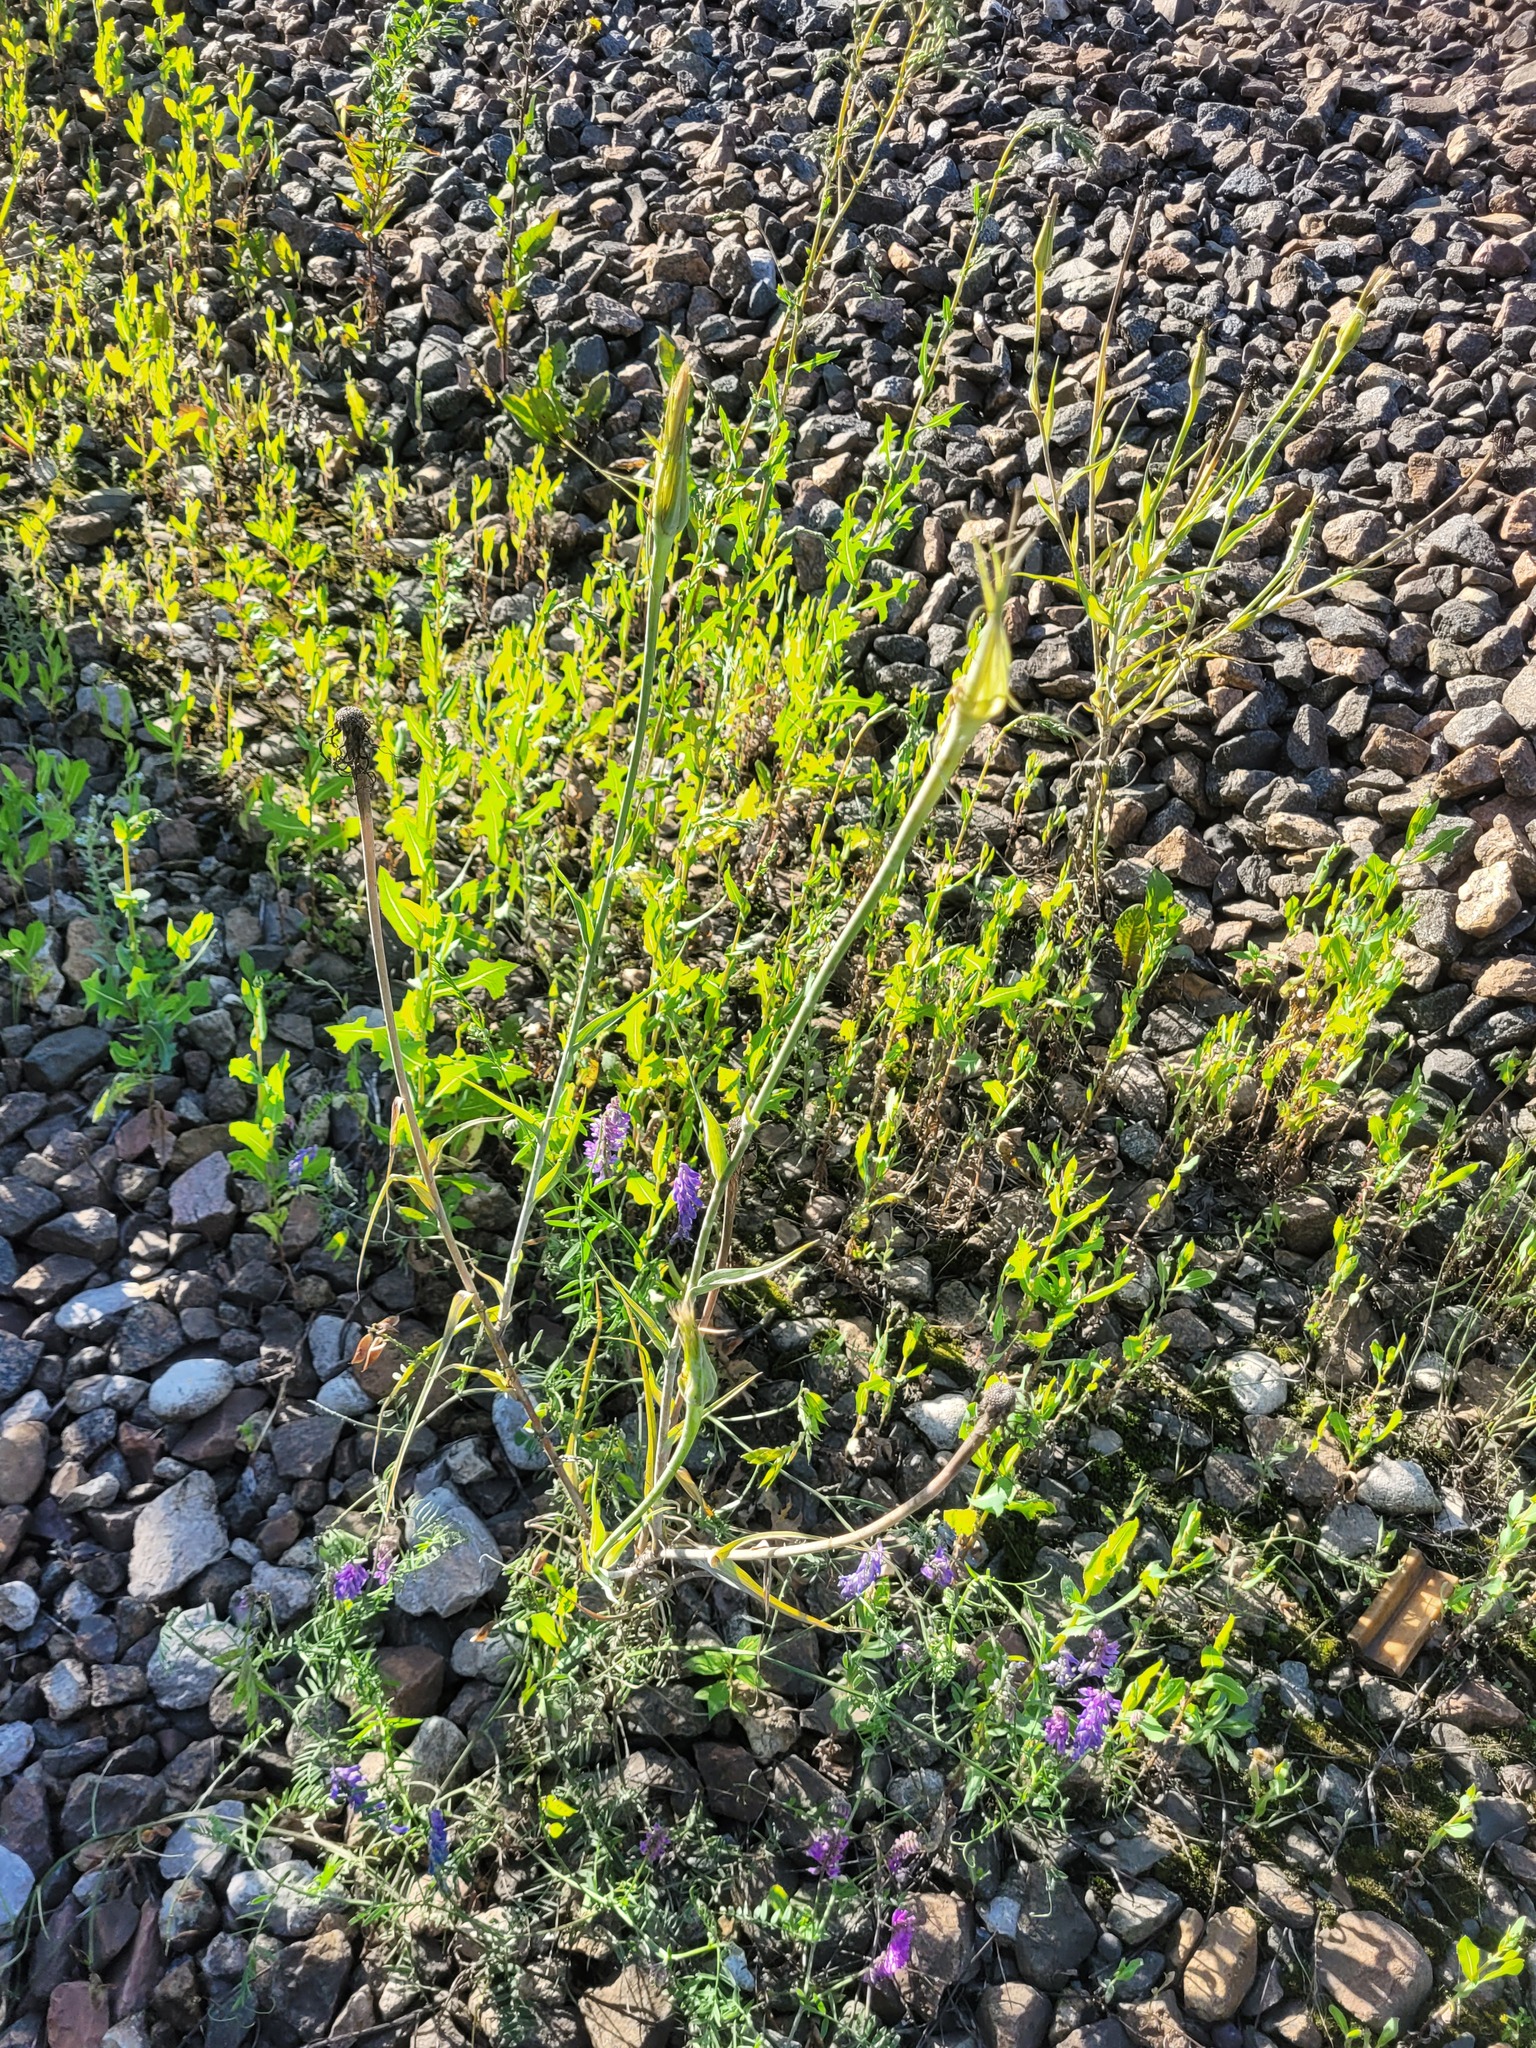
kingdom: Plantae
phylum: Tracheophyta
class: Magnoliopsida
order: Asterales
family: Asteraceae
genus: Tragopogon
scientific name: Tragopogon dubius
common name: Yellow salsify
